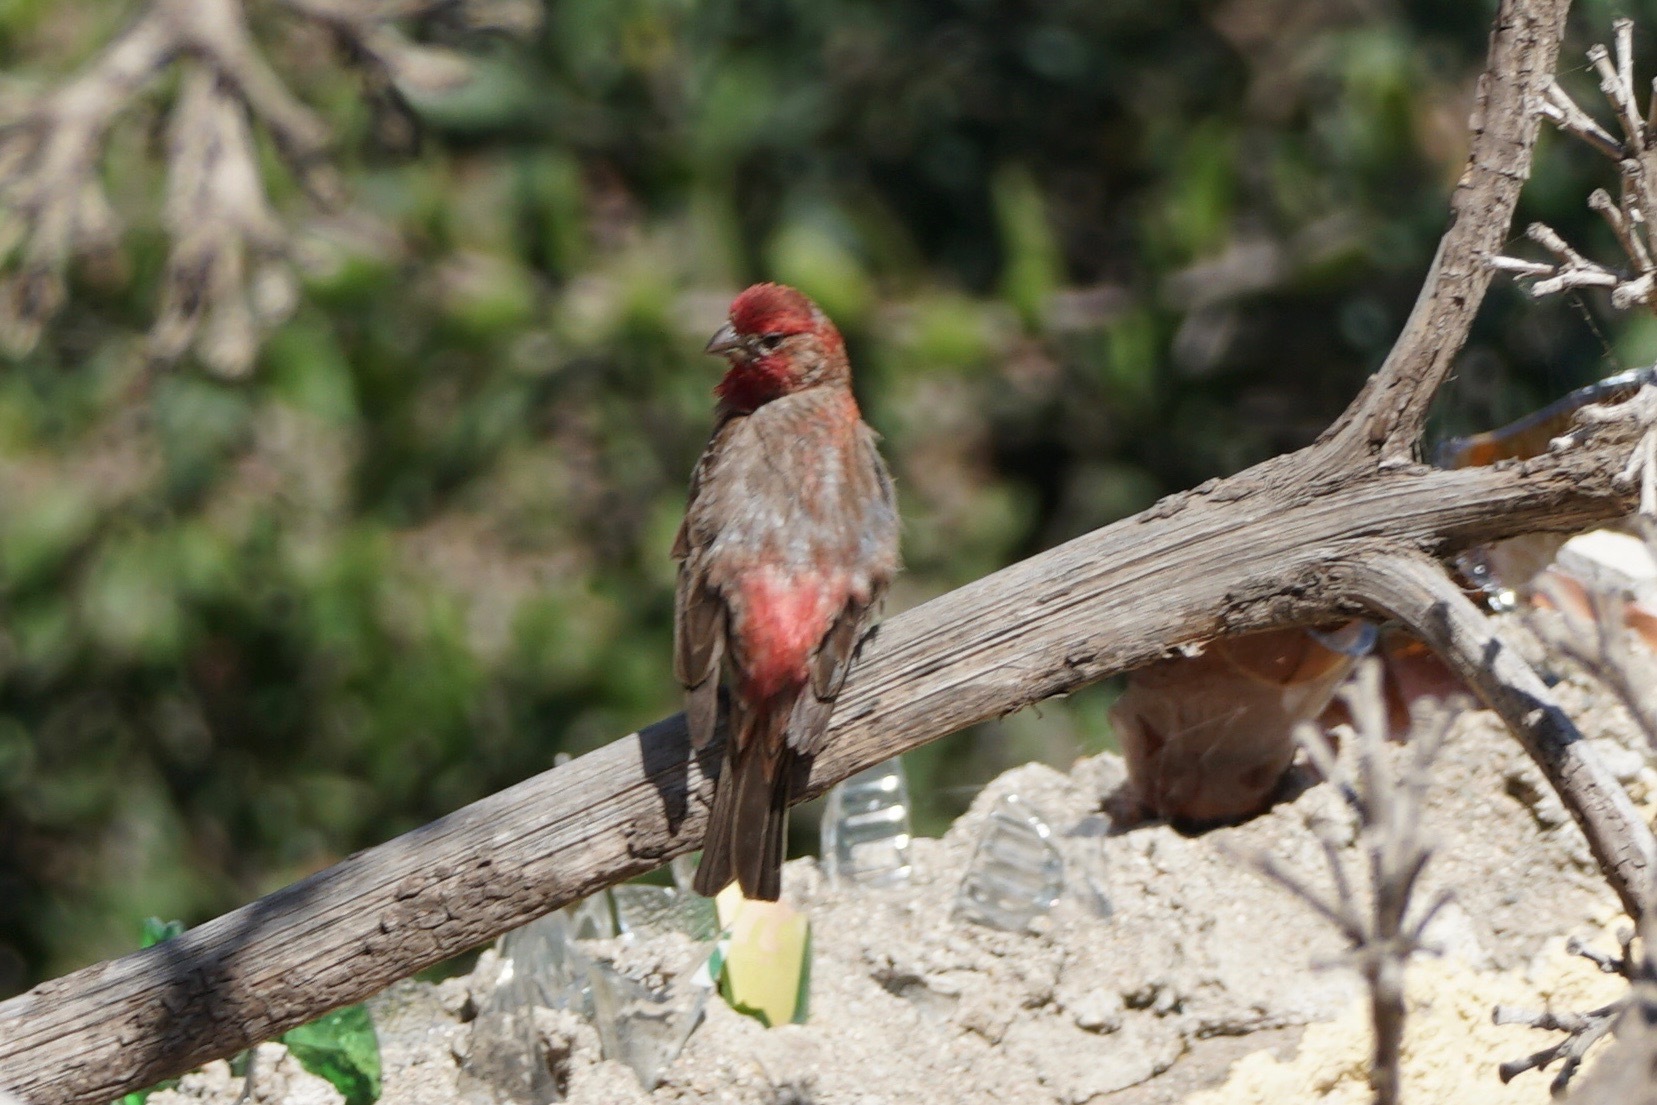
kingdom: Animalia
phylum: Chordata
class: Aves
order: Passeriformes
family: Fringillidae
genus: Haemorhous
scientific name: Haemorhous mexicanus
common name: House finch
